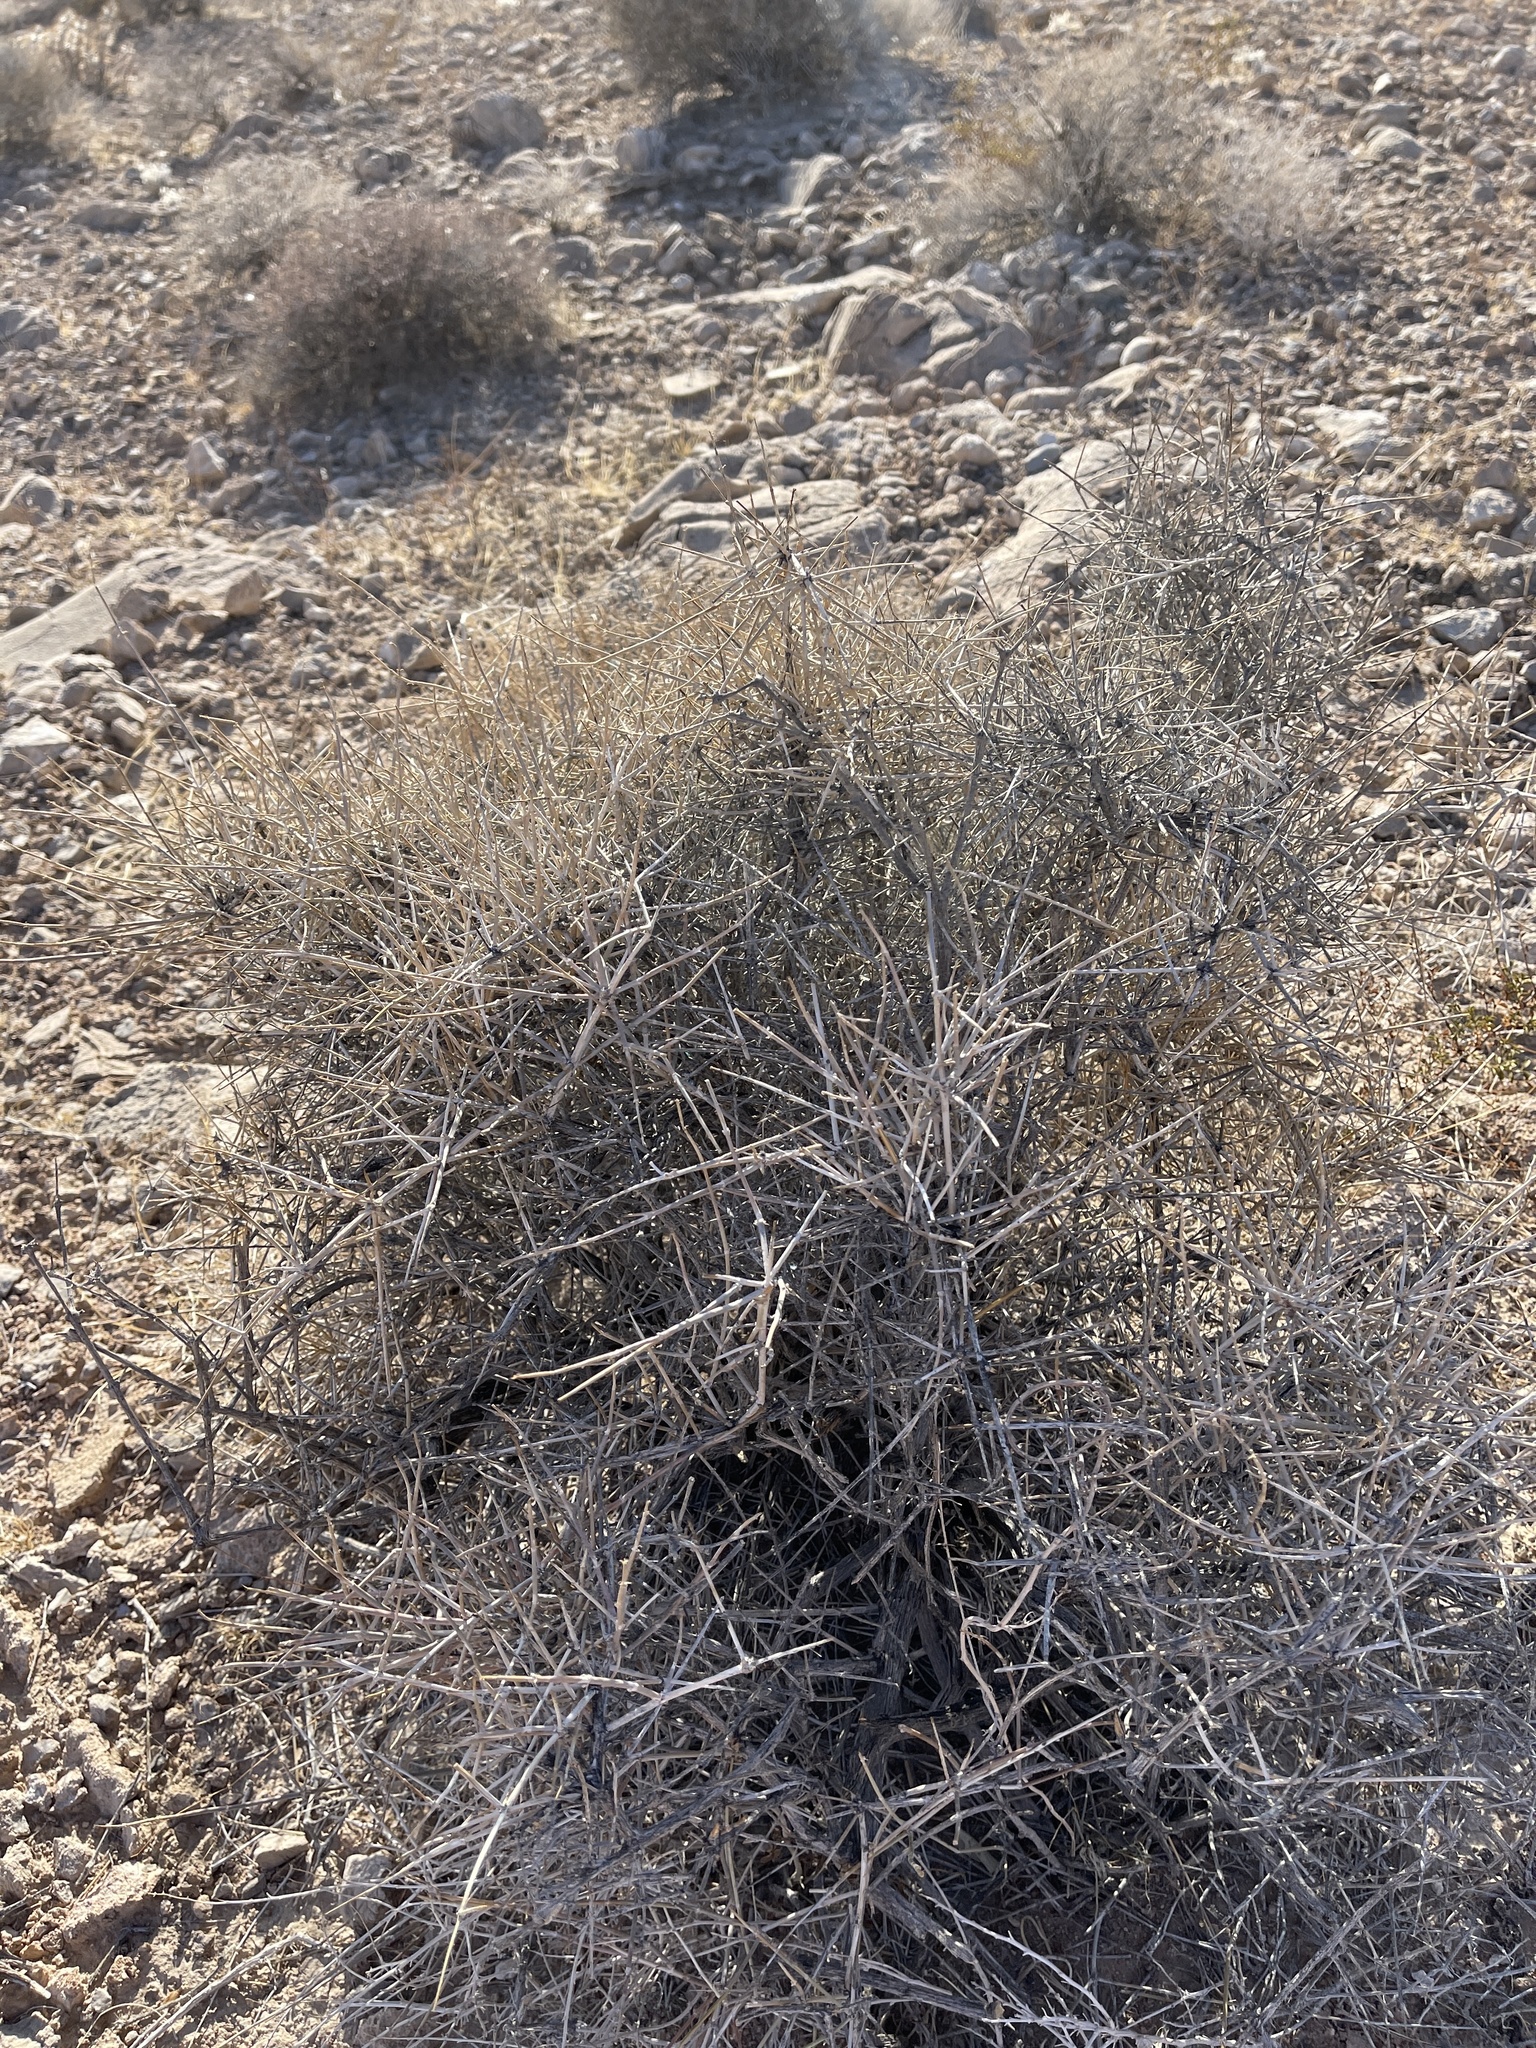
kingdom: Plantae
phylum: Tracheophyta
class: Gnetopsida
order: Ephedrales
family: Ephedraceae
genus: Ephedra
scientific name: Ephedra nevadensis
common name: Gray ephedra
